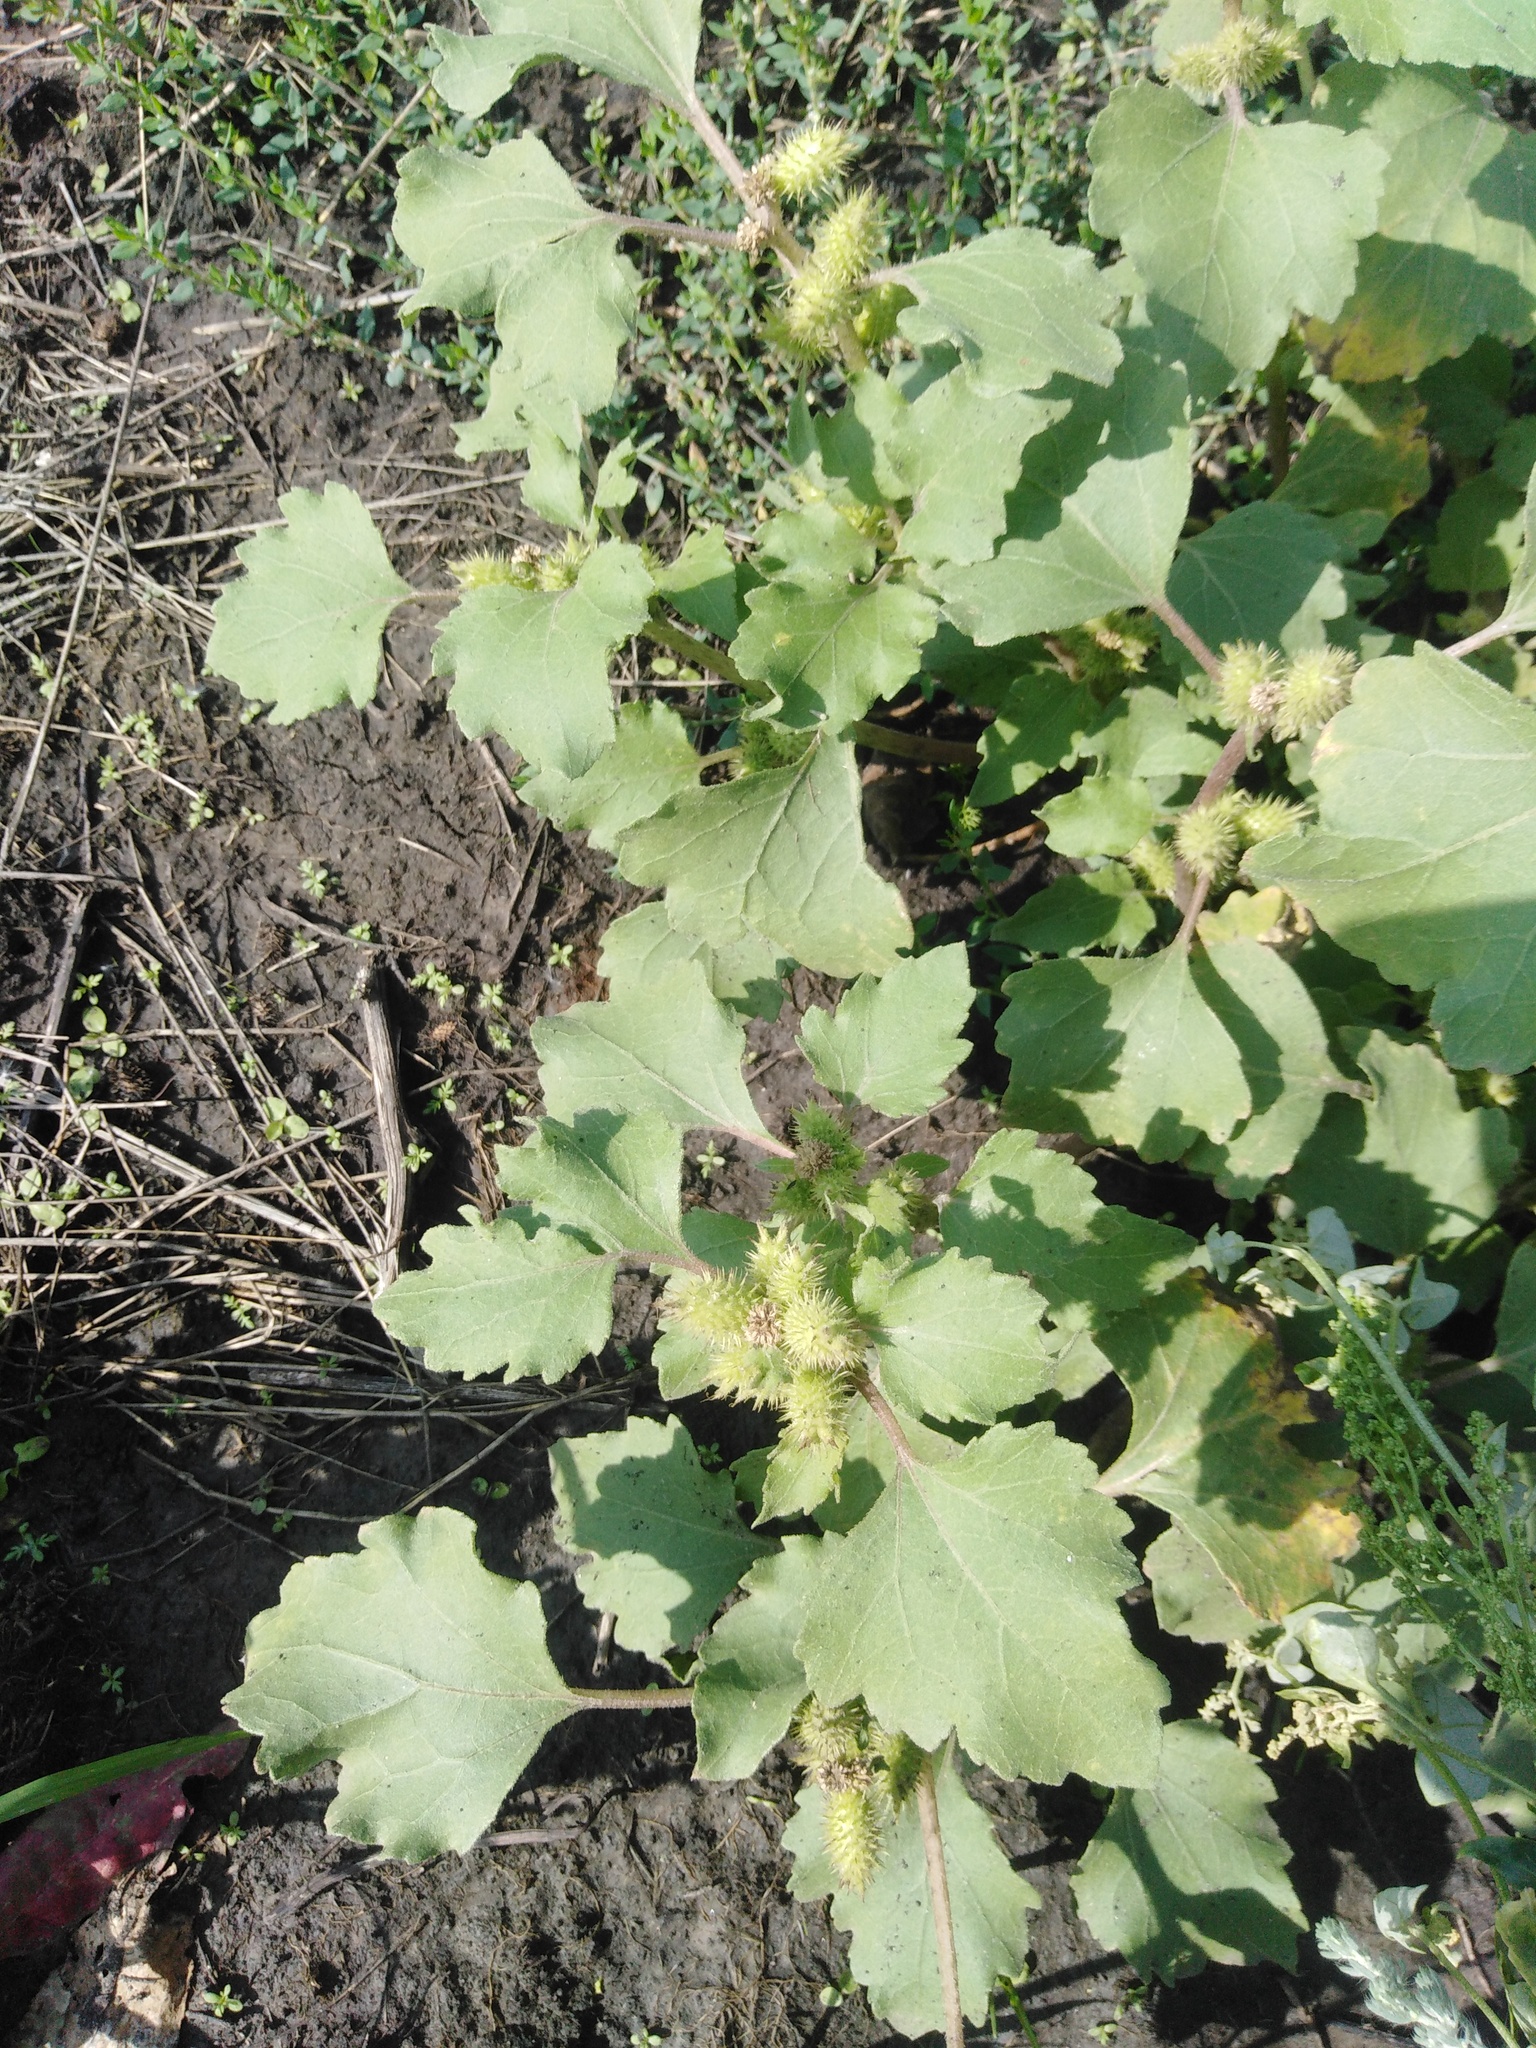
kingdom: Plantae
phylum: Tracheophyta
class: Magnoliopsida
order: Asterales
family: Asteraceae
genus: Xanthium
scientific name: Xanthium orientale
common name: Californian burr
